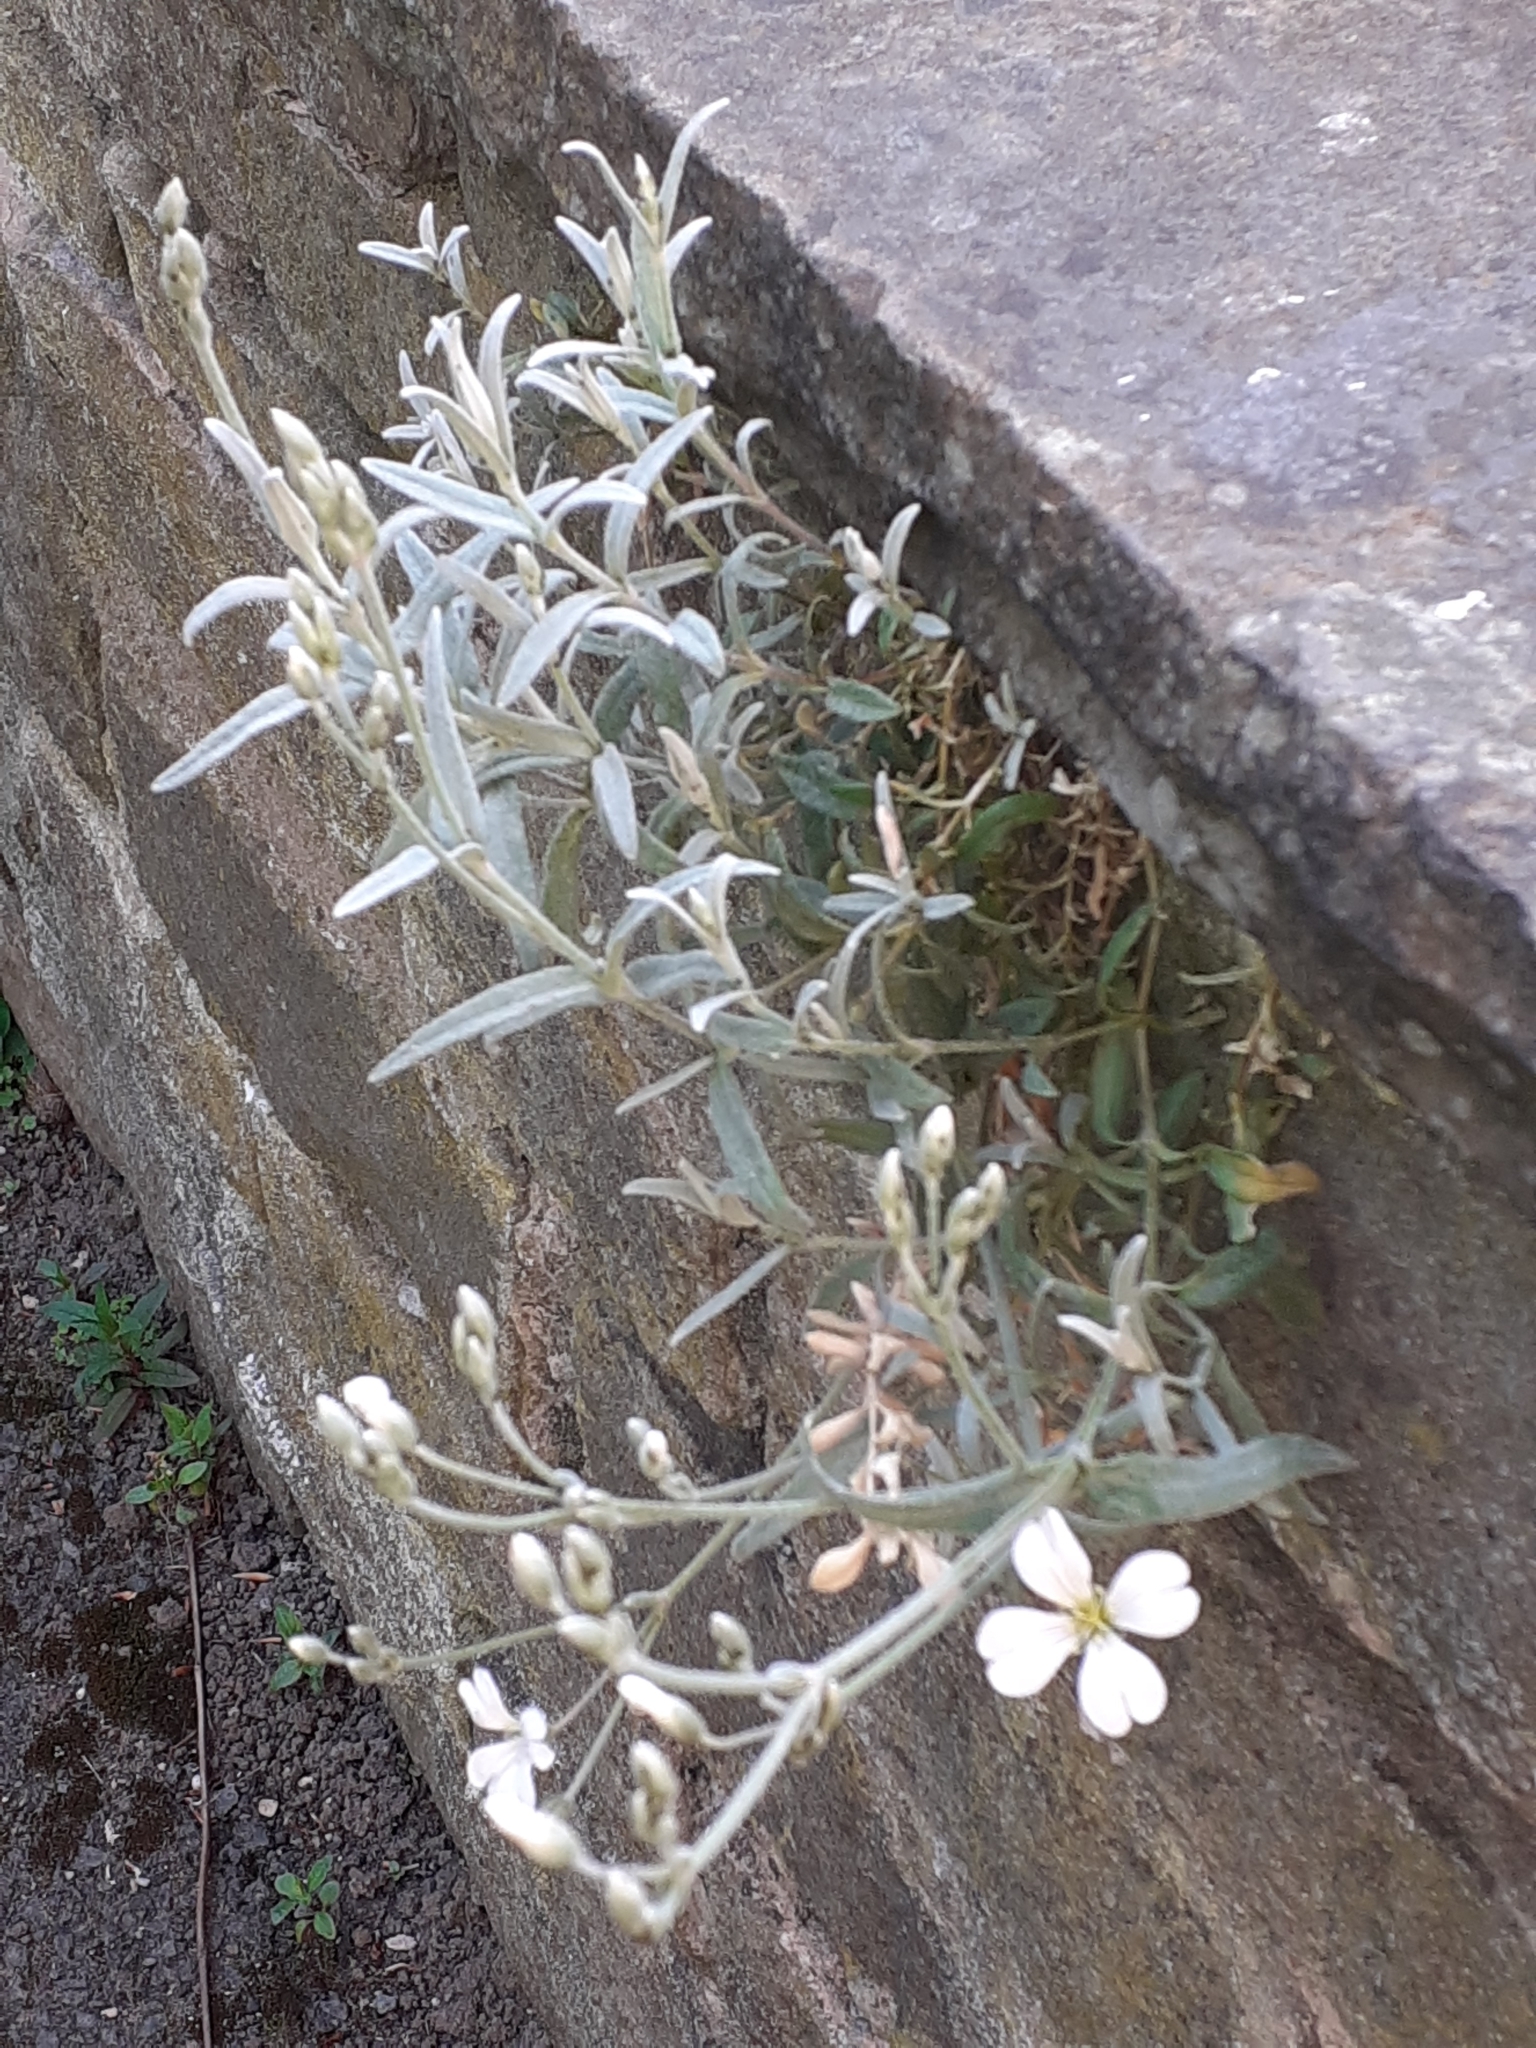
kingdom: Plantae
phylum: Tracheophyta
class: Magnoliopsida
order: Caryophyllales
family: Caryophyllaceae
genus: Cerastium
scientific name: Cerastium tomentosum
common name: Snow-in-summer
